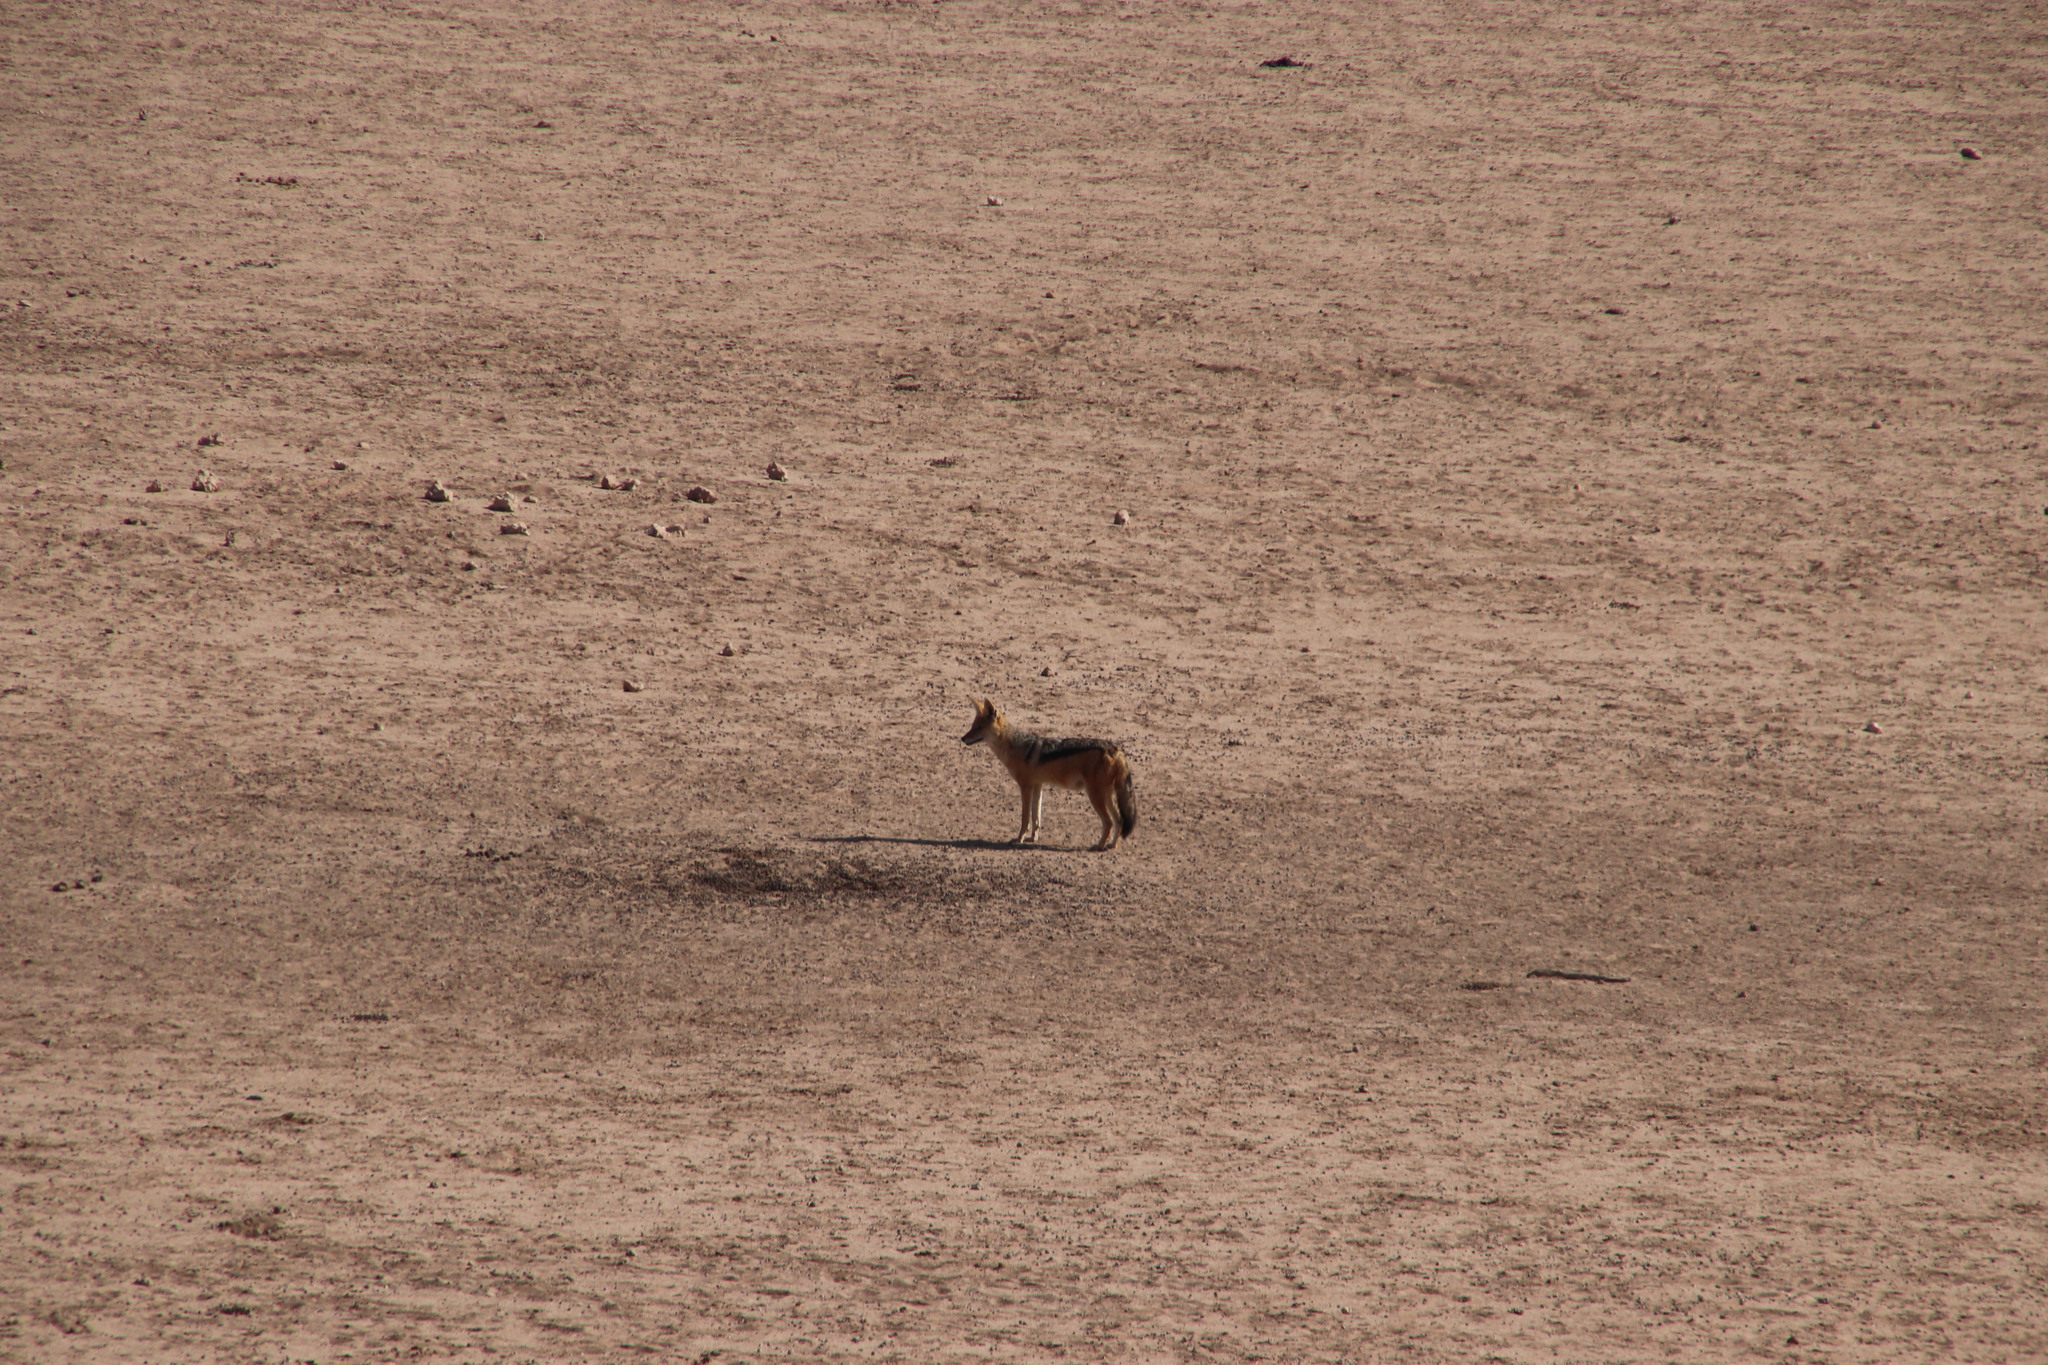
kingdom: Animalia
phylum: Chordata
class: Mammalia
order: Carnivora
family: Canidae
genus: Lupulella
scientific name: Lupulella
